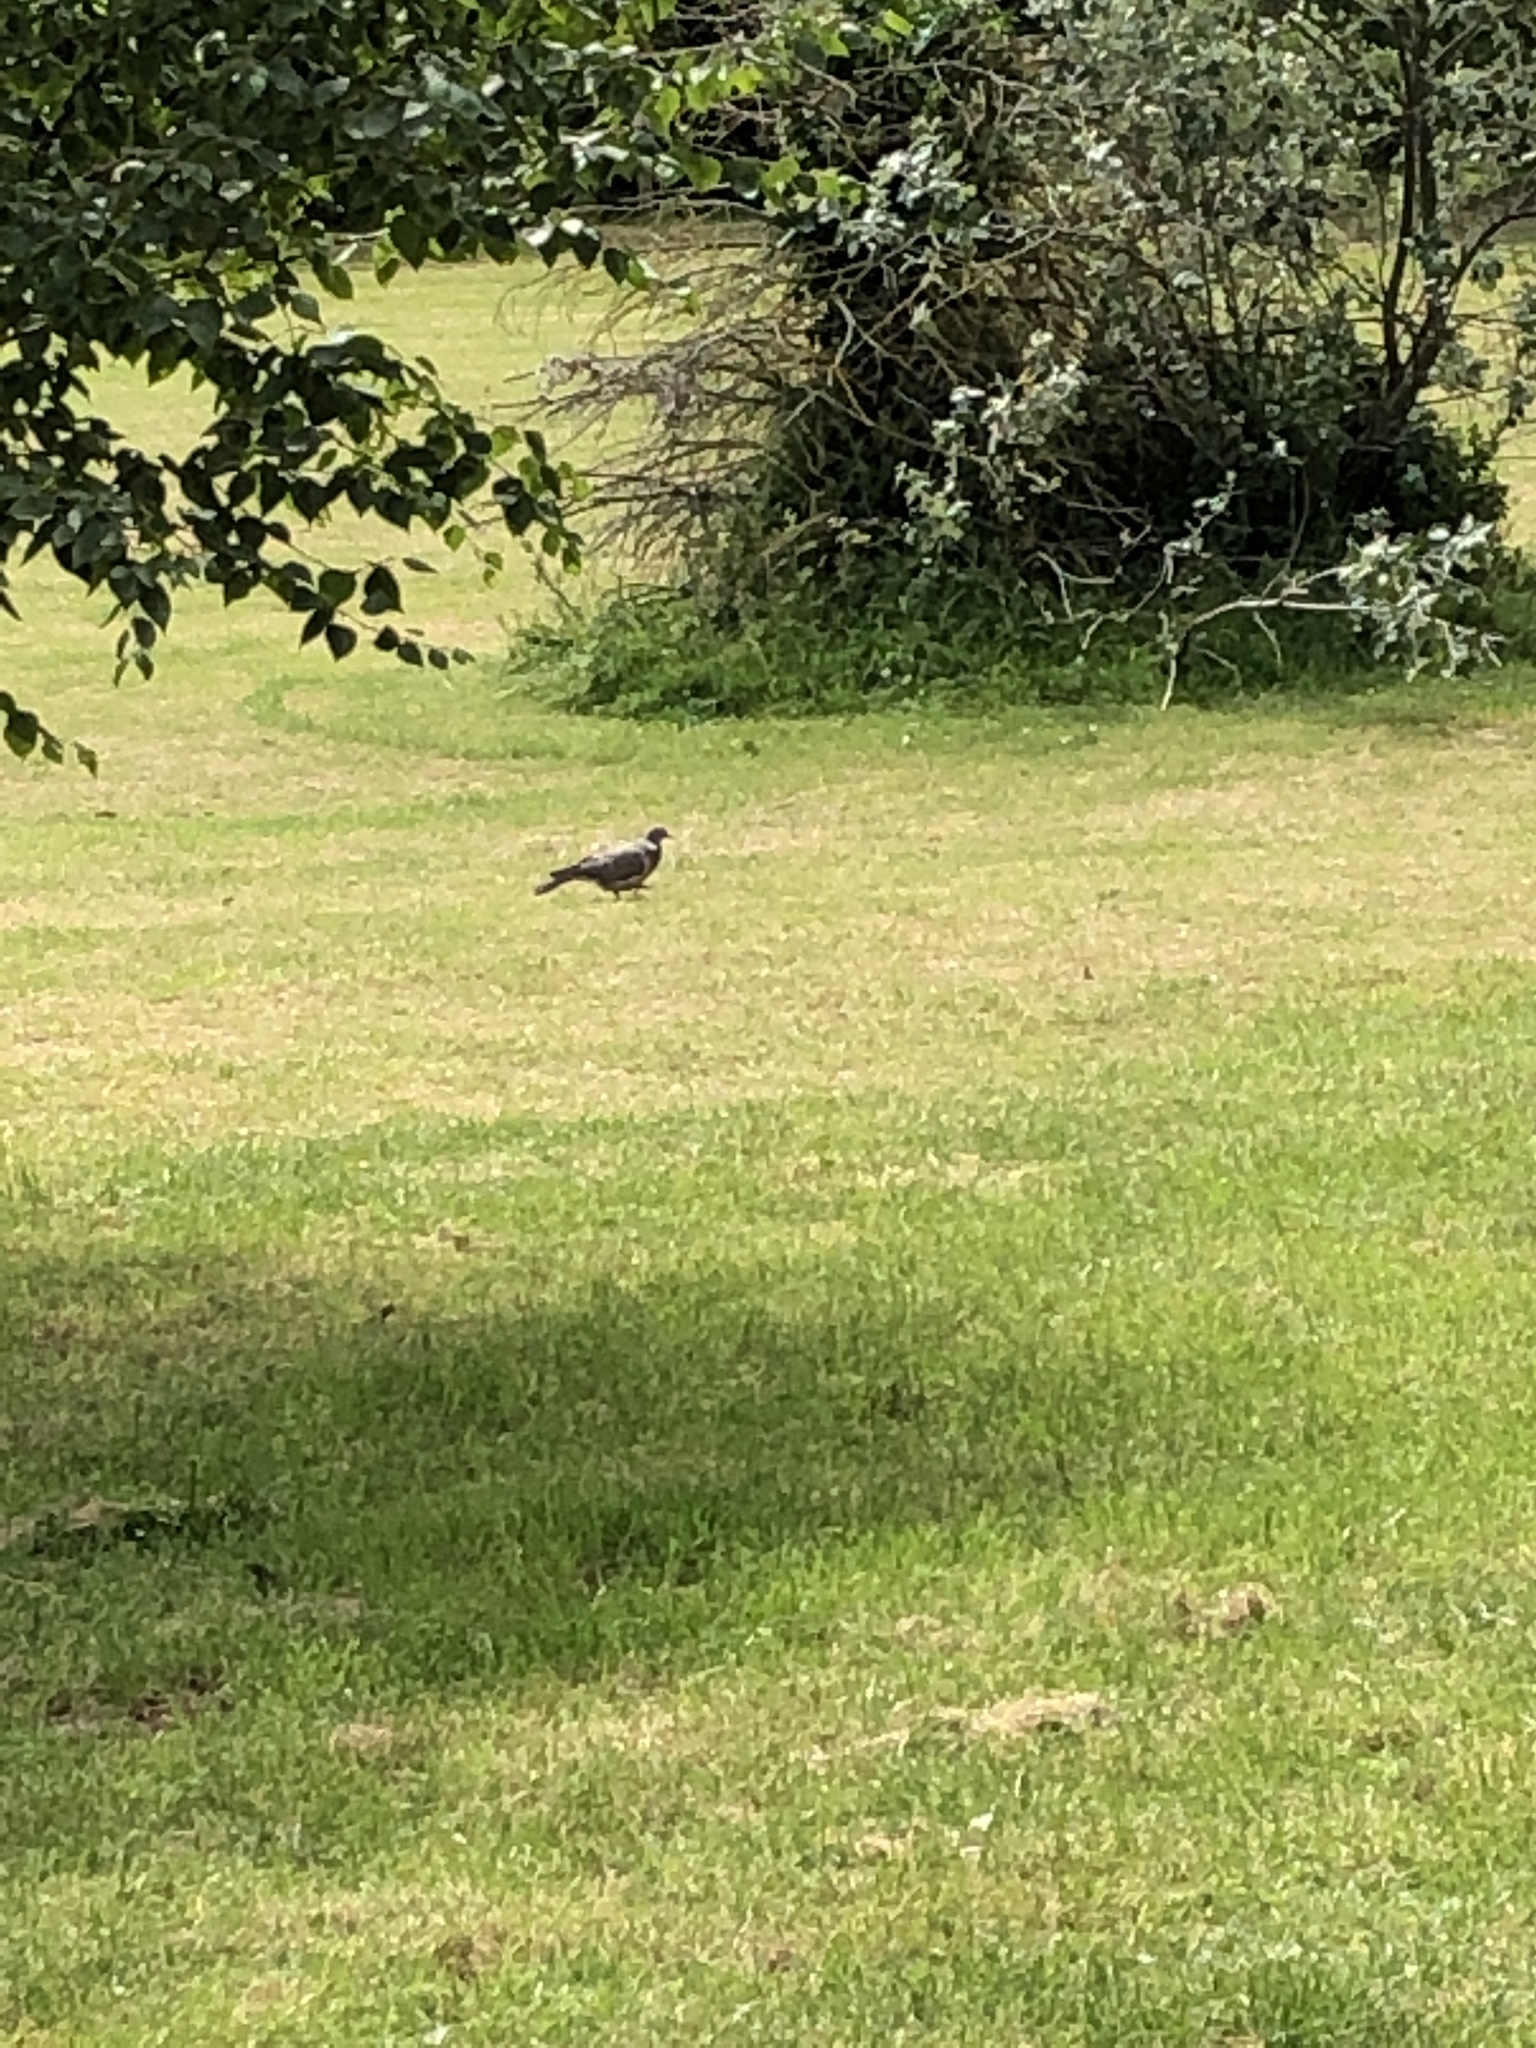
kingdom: Animalia
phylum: Chordata
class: Aves
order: Columbiformes
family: Columbidae
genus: Columba
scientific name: Columba palumbus
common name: Common wood pigeon
